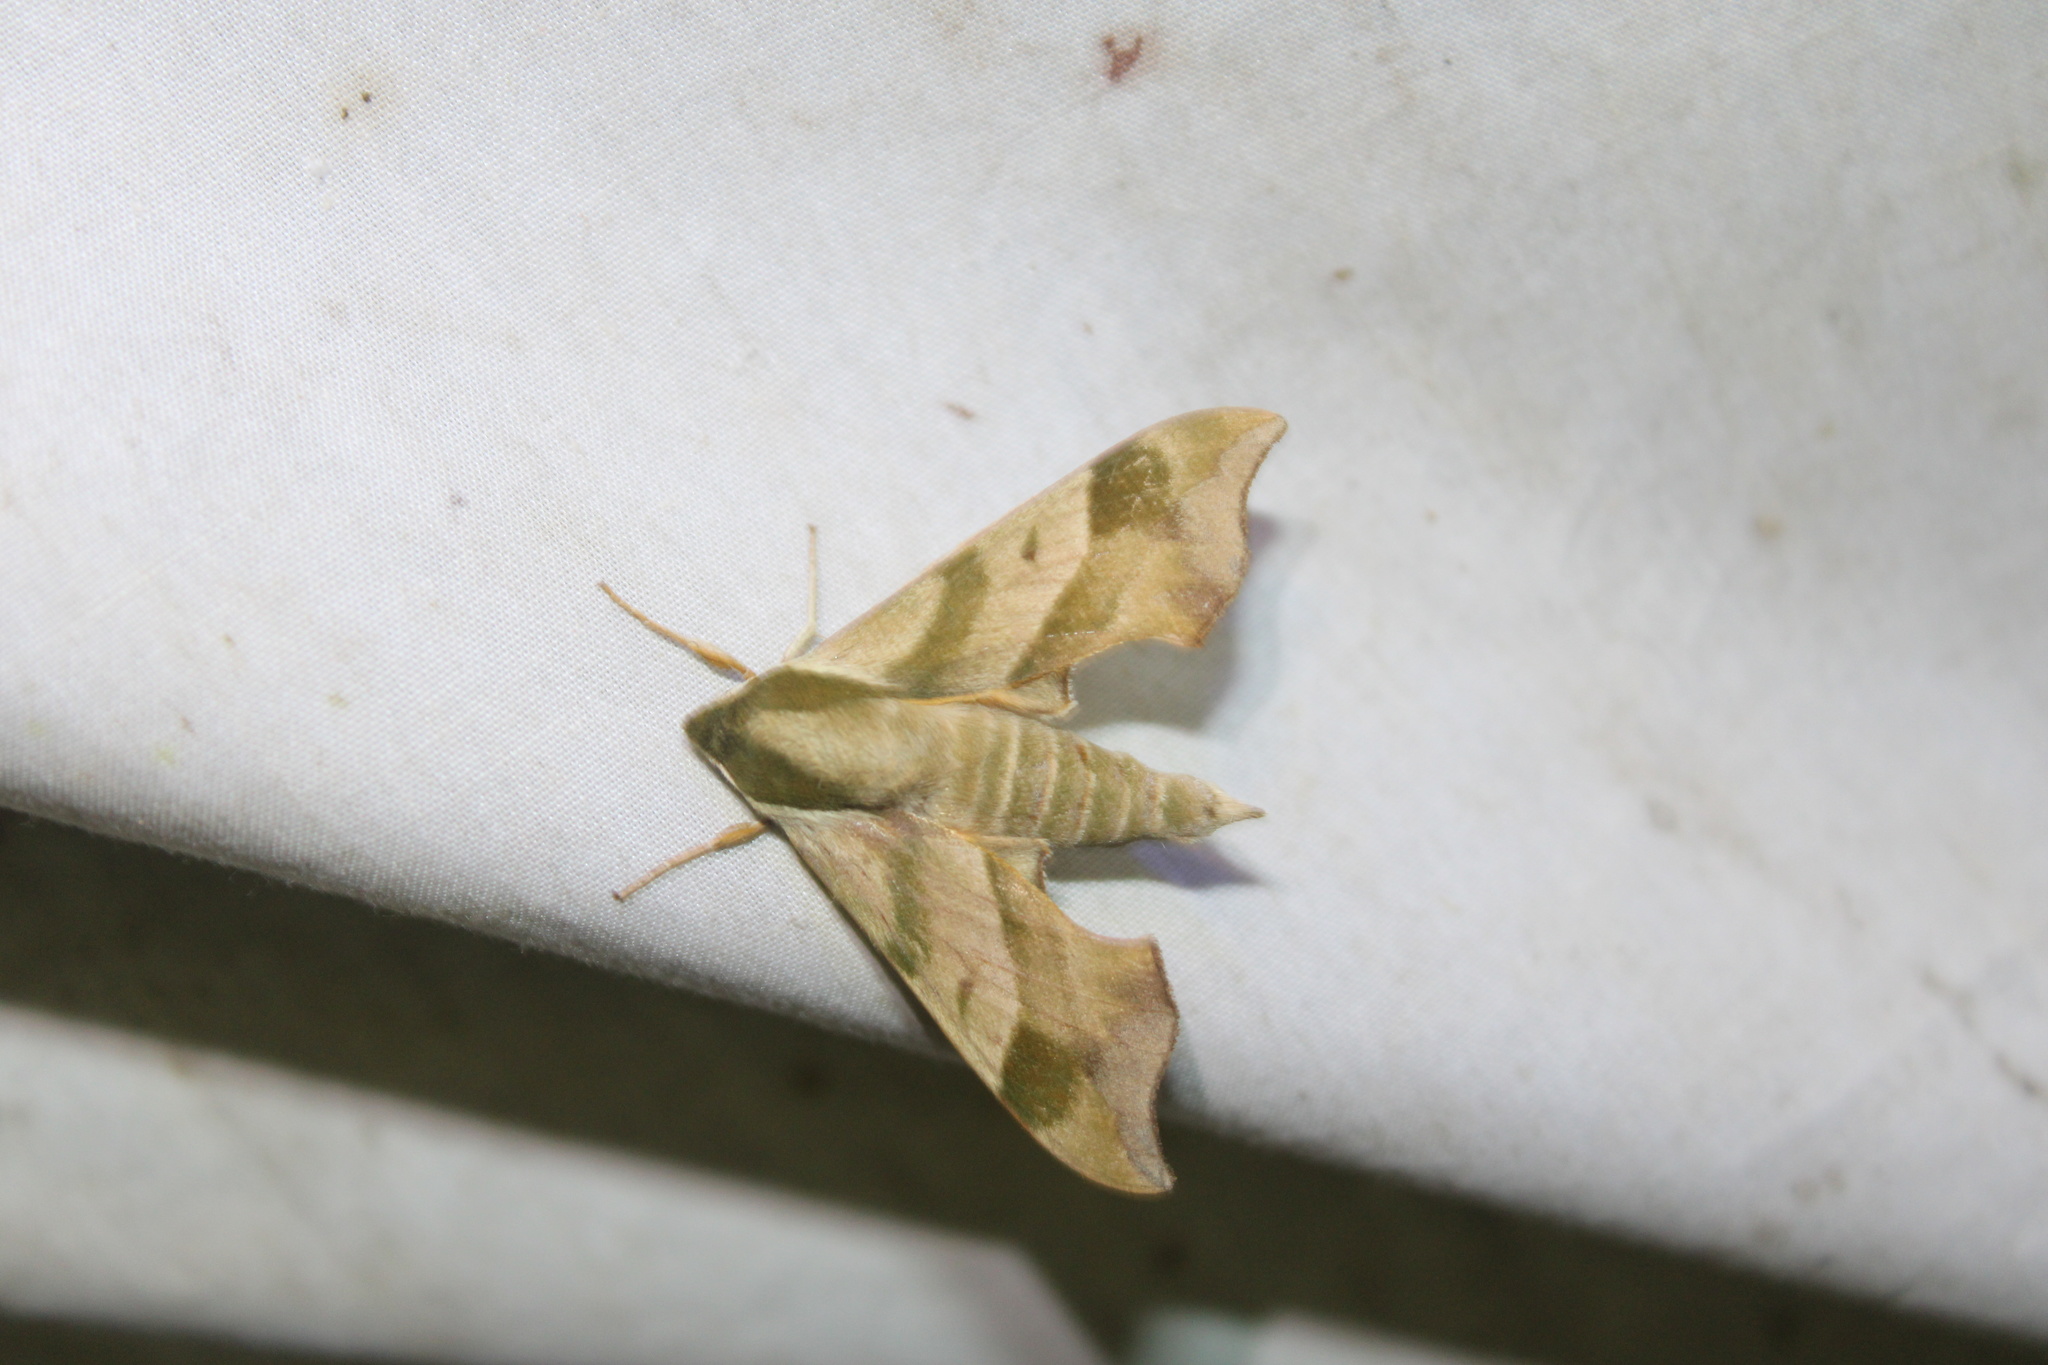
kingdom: Animalia
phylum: Arthropoda
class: Insecta
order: Lepidoptera
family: Sphingidae
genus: Darapsa
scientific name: Darapsa myron
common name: Hog sphinx
